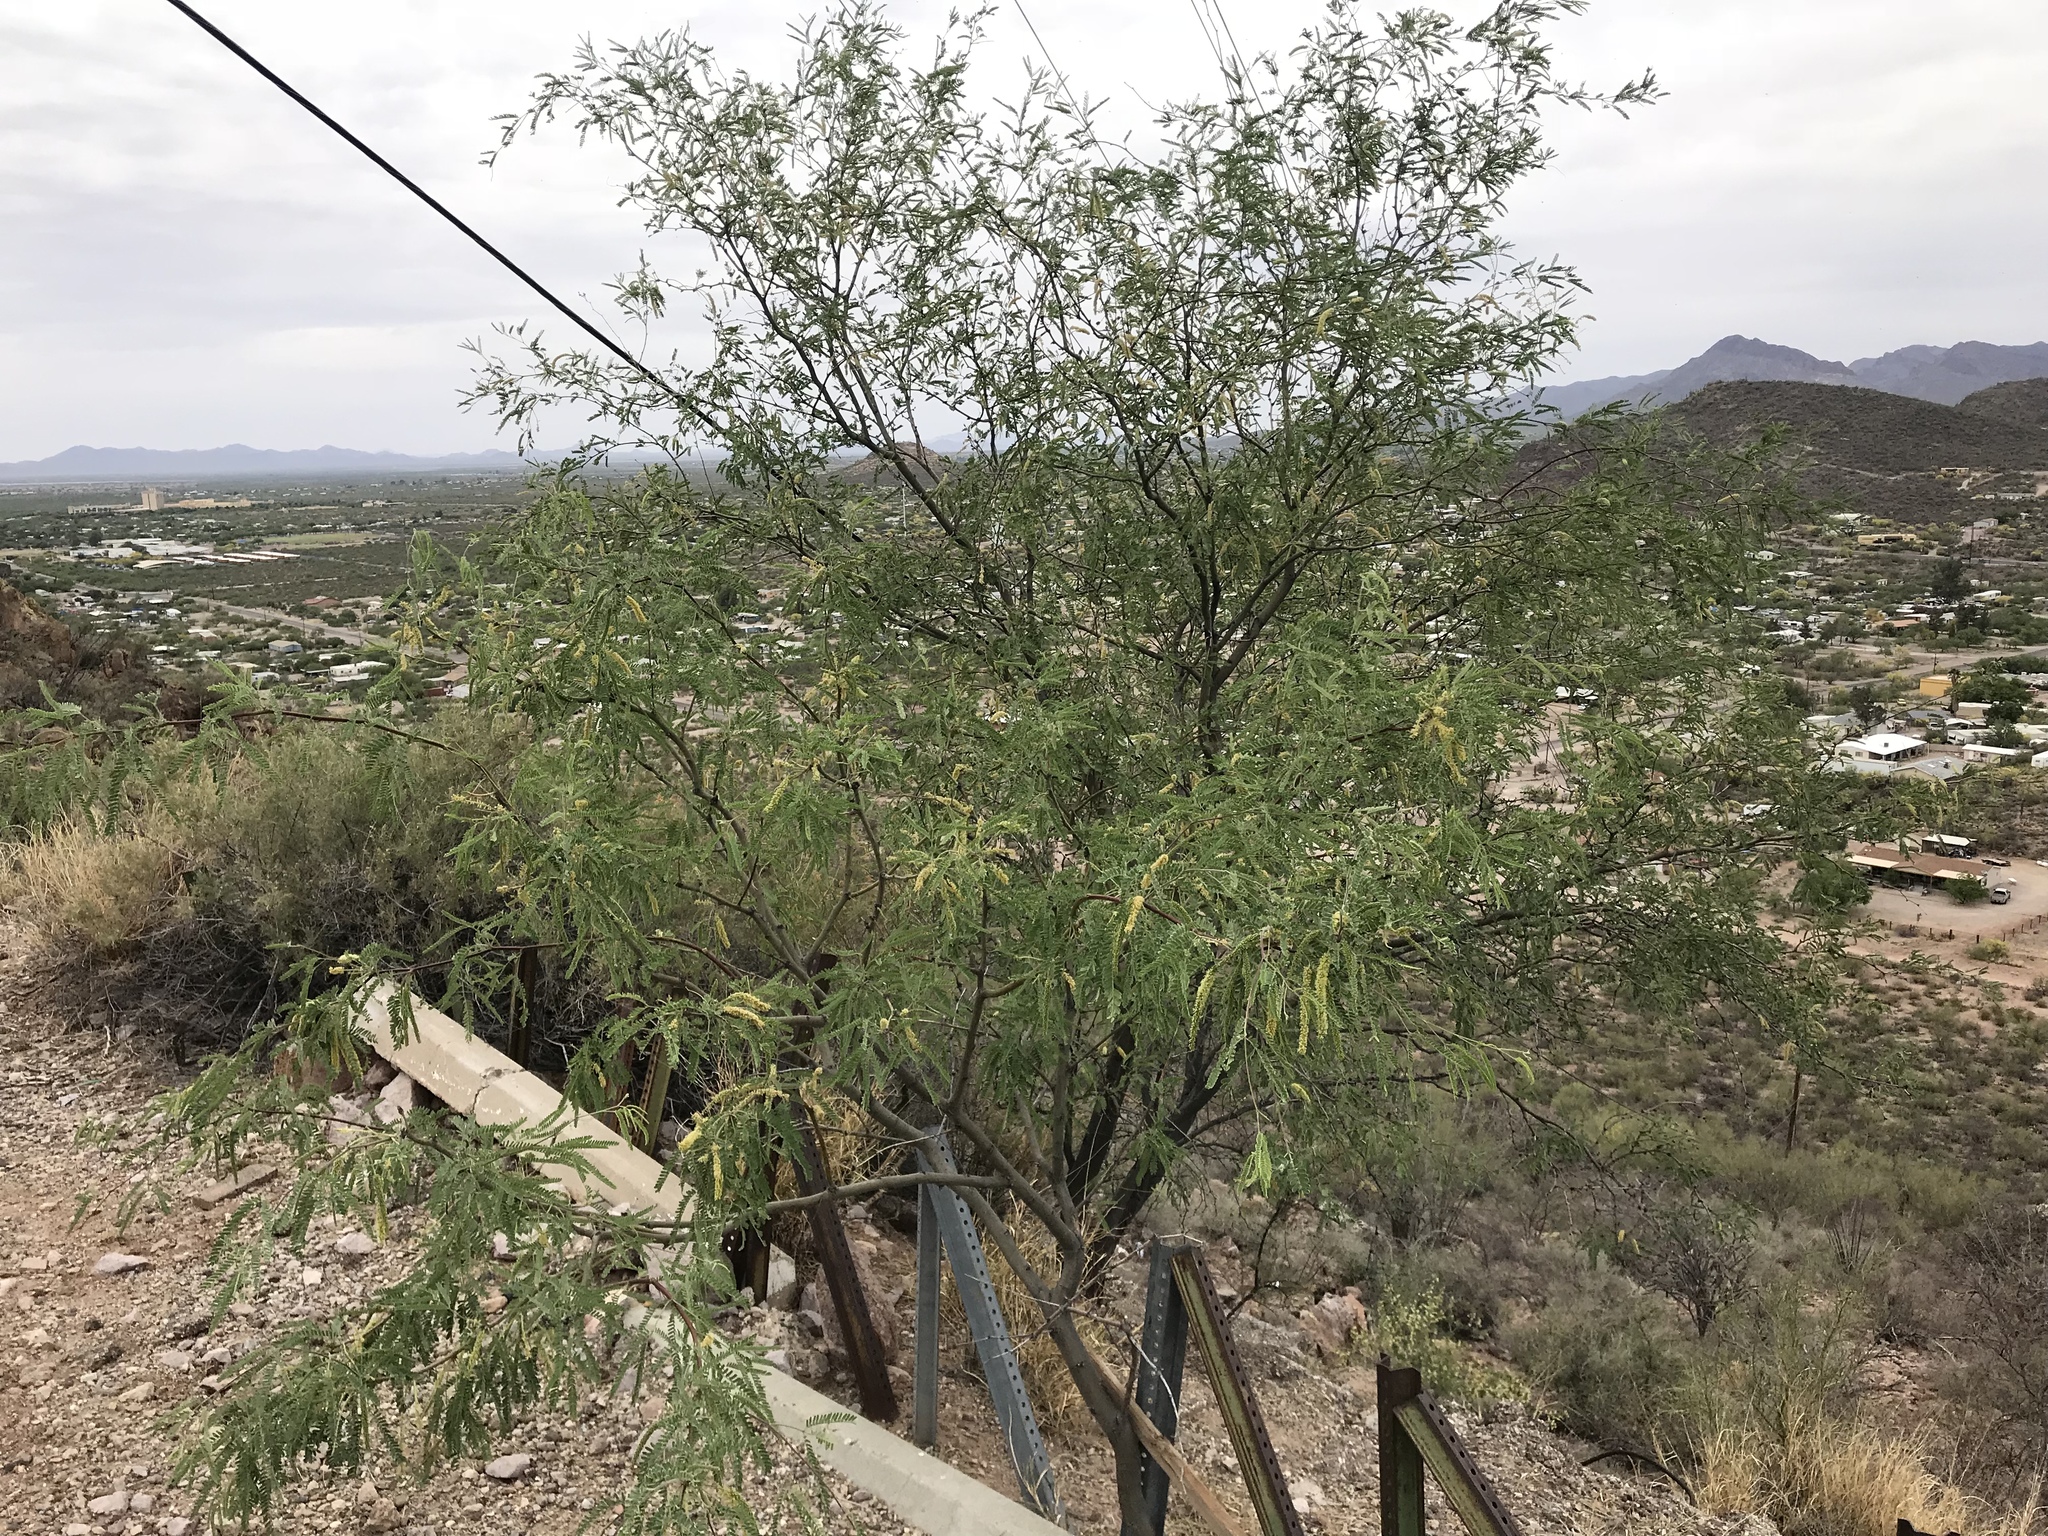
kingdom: Plantae
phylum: Tracheophyta
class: Magnoliopsida
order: Fabales
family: Fabaceae
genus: Prosopis
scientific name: Prosopis velutina
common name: Velvet mesquite
